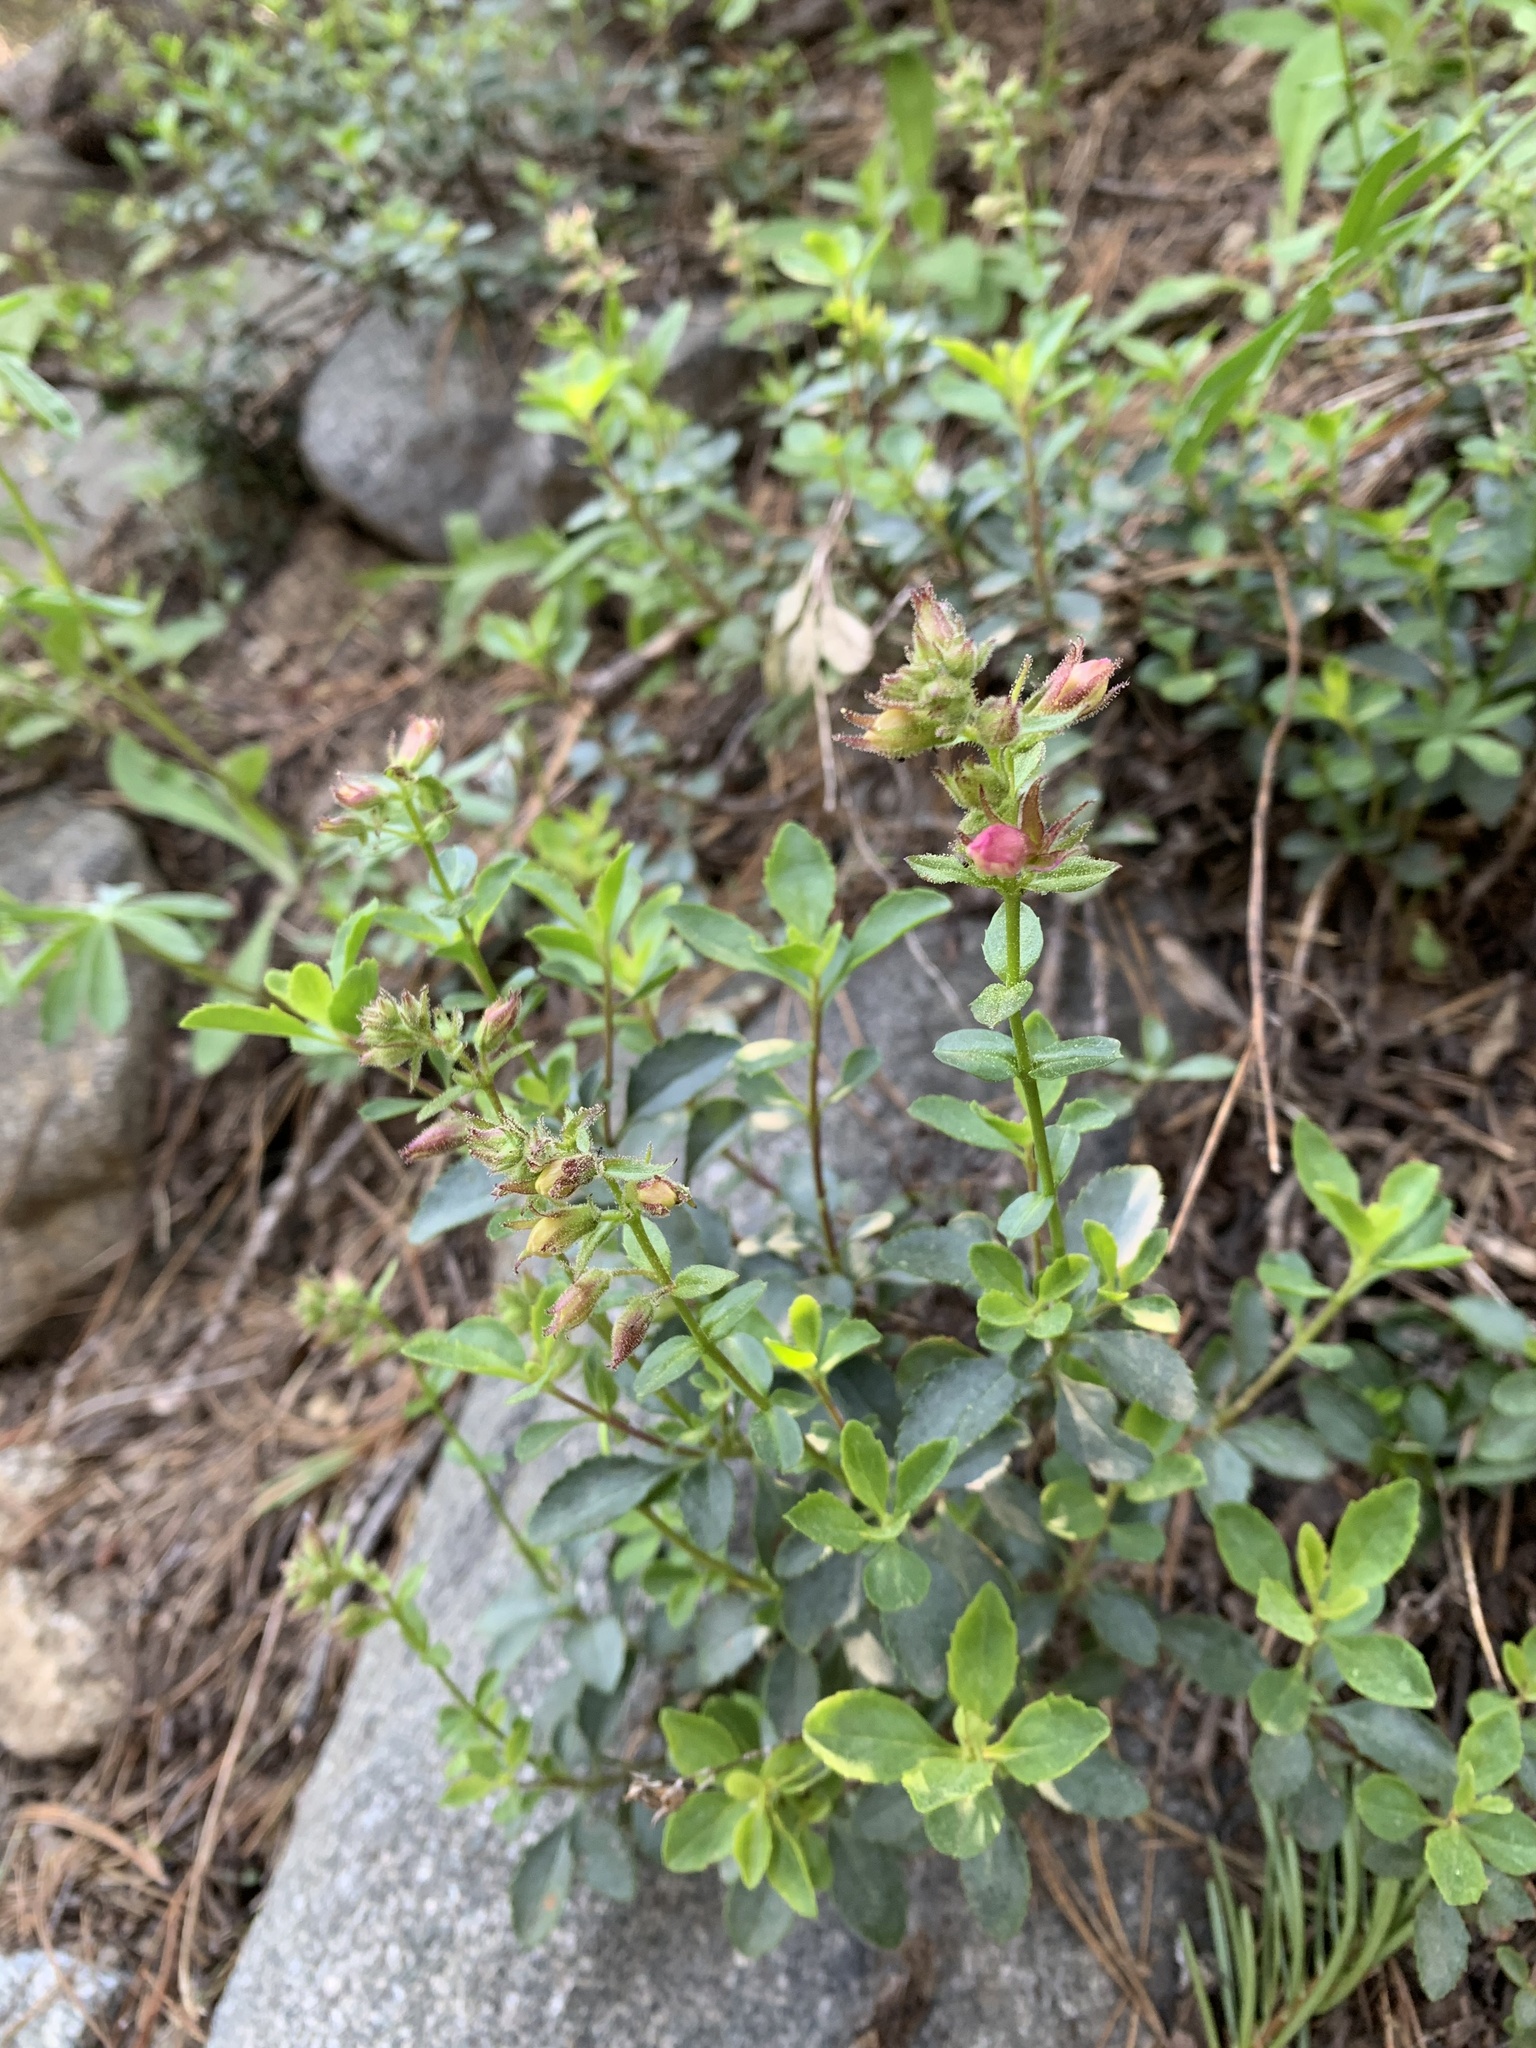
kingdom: Plantae
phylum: Tracheophyta
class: Magnoliopsida
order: Lamiales
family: Plantaginaceae
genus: Penstemon
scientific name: Penstemon newberryi
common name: Mountain-pride
